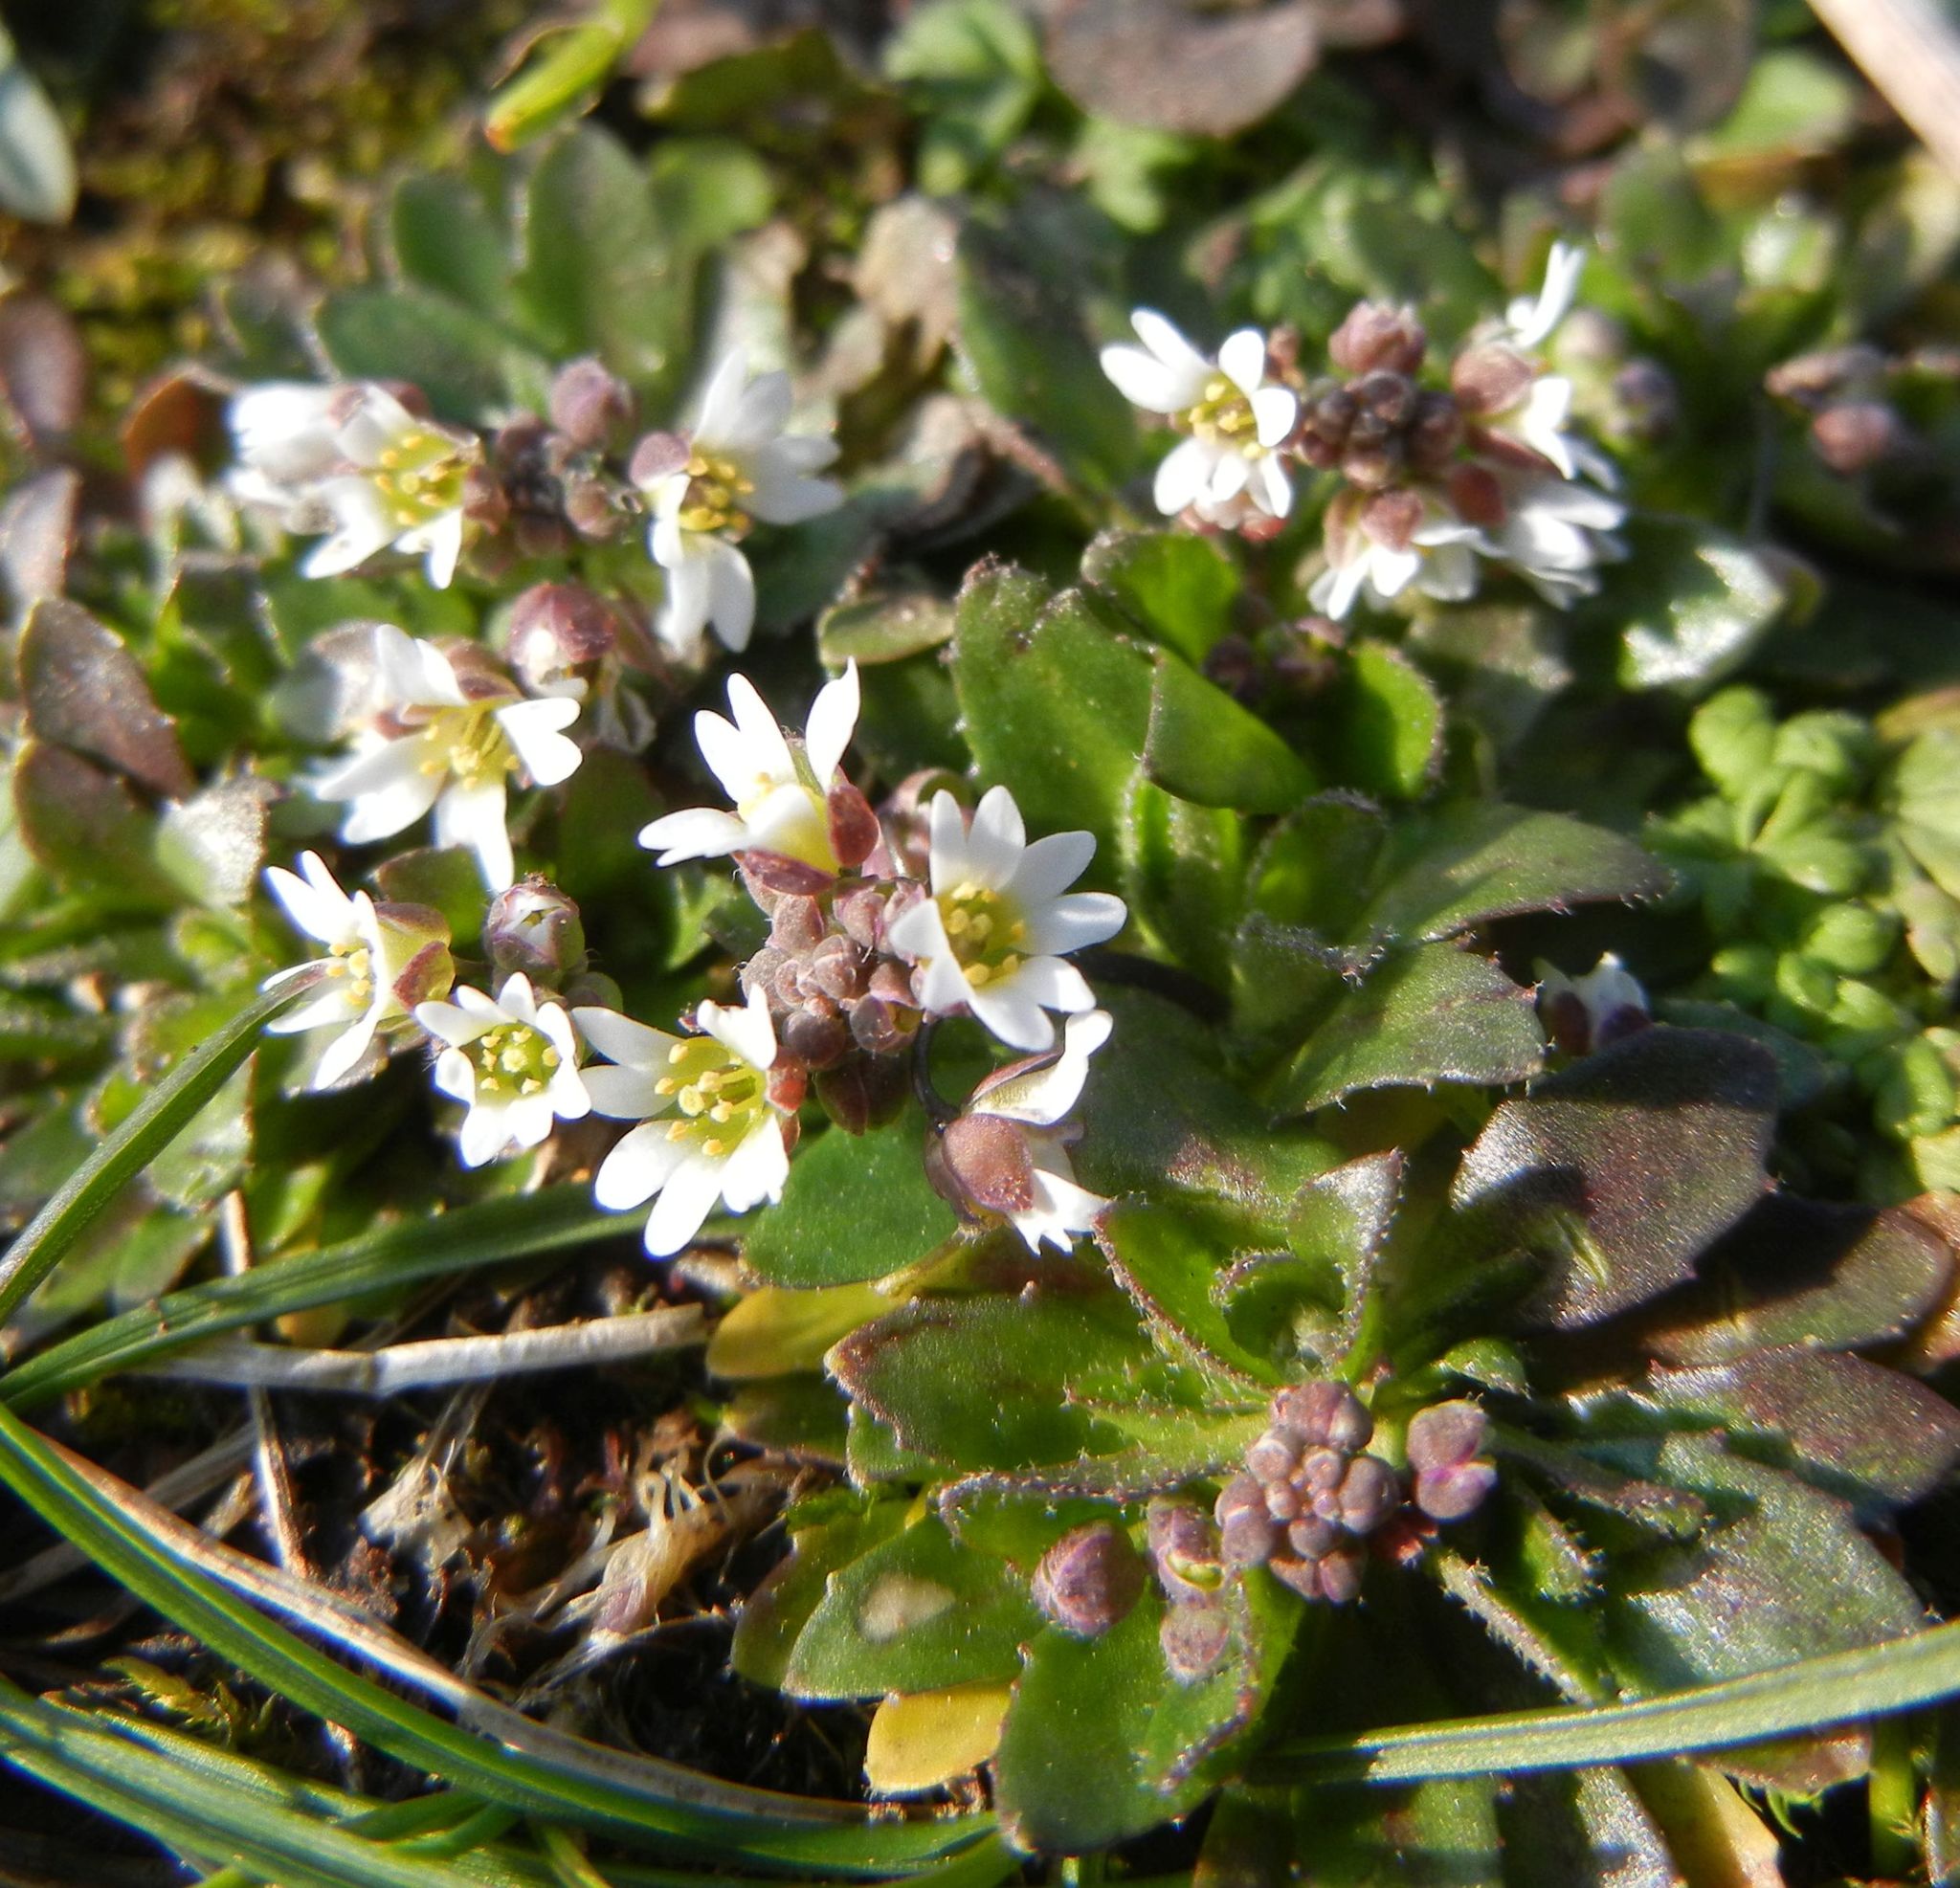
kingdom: Plantae
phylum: Tracheophyta
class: Magnoliopsida
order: Brassicales
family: Brassicaceae
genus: Draba
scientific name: Draba verna
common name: Spring draba
